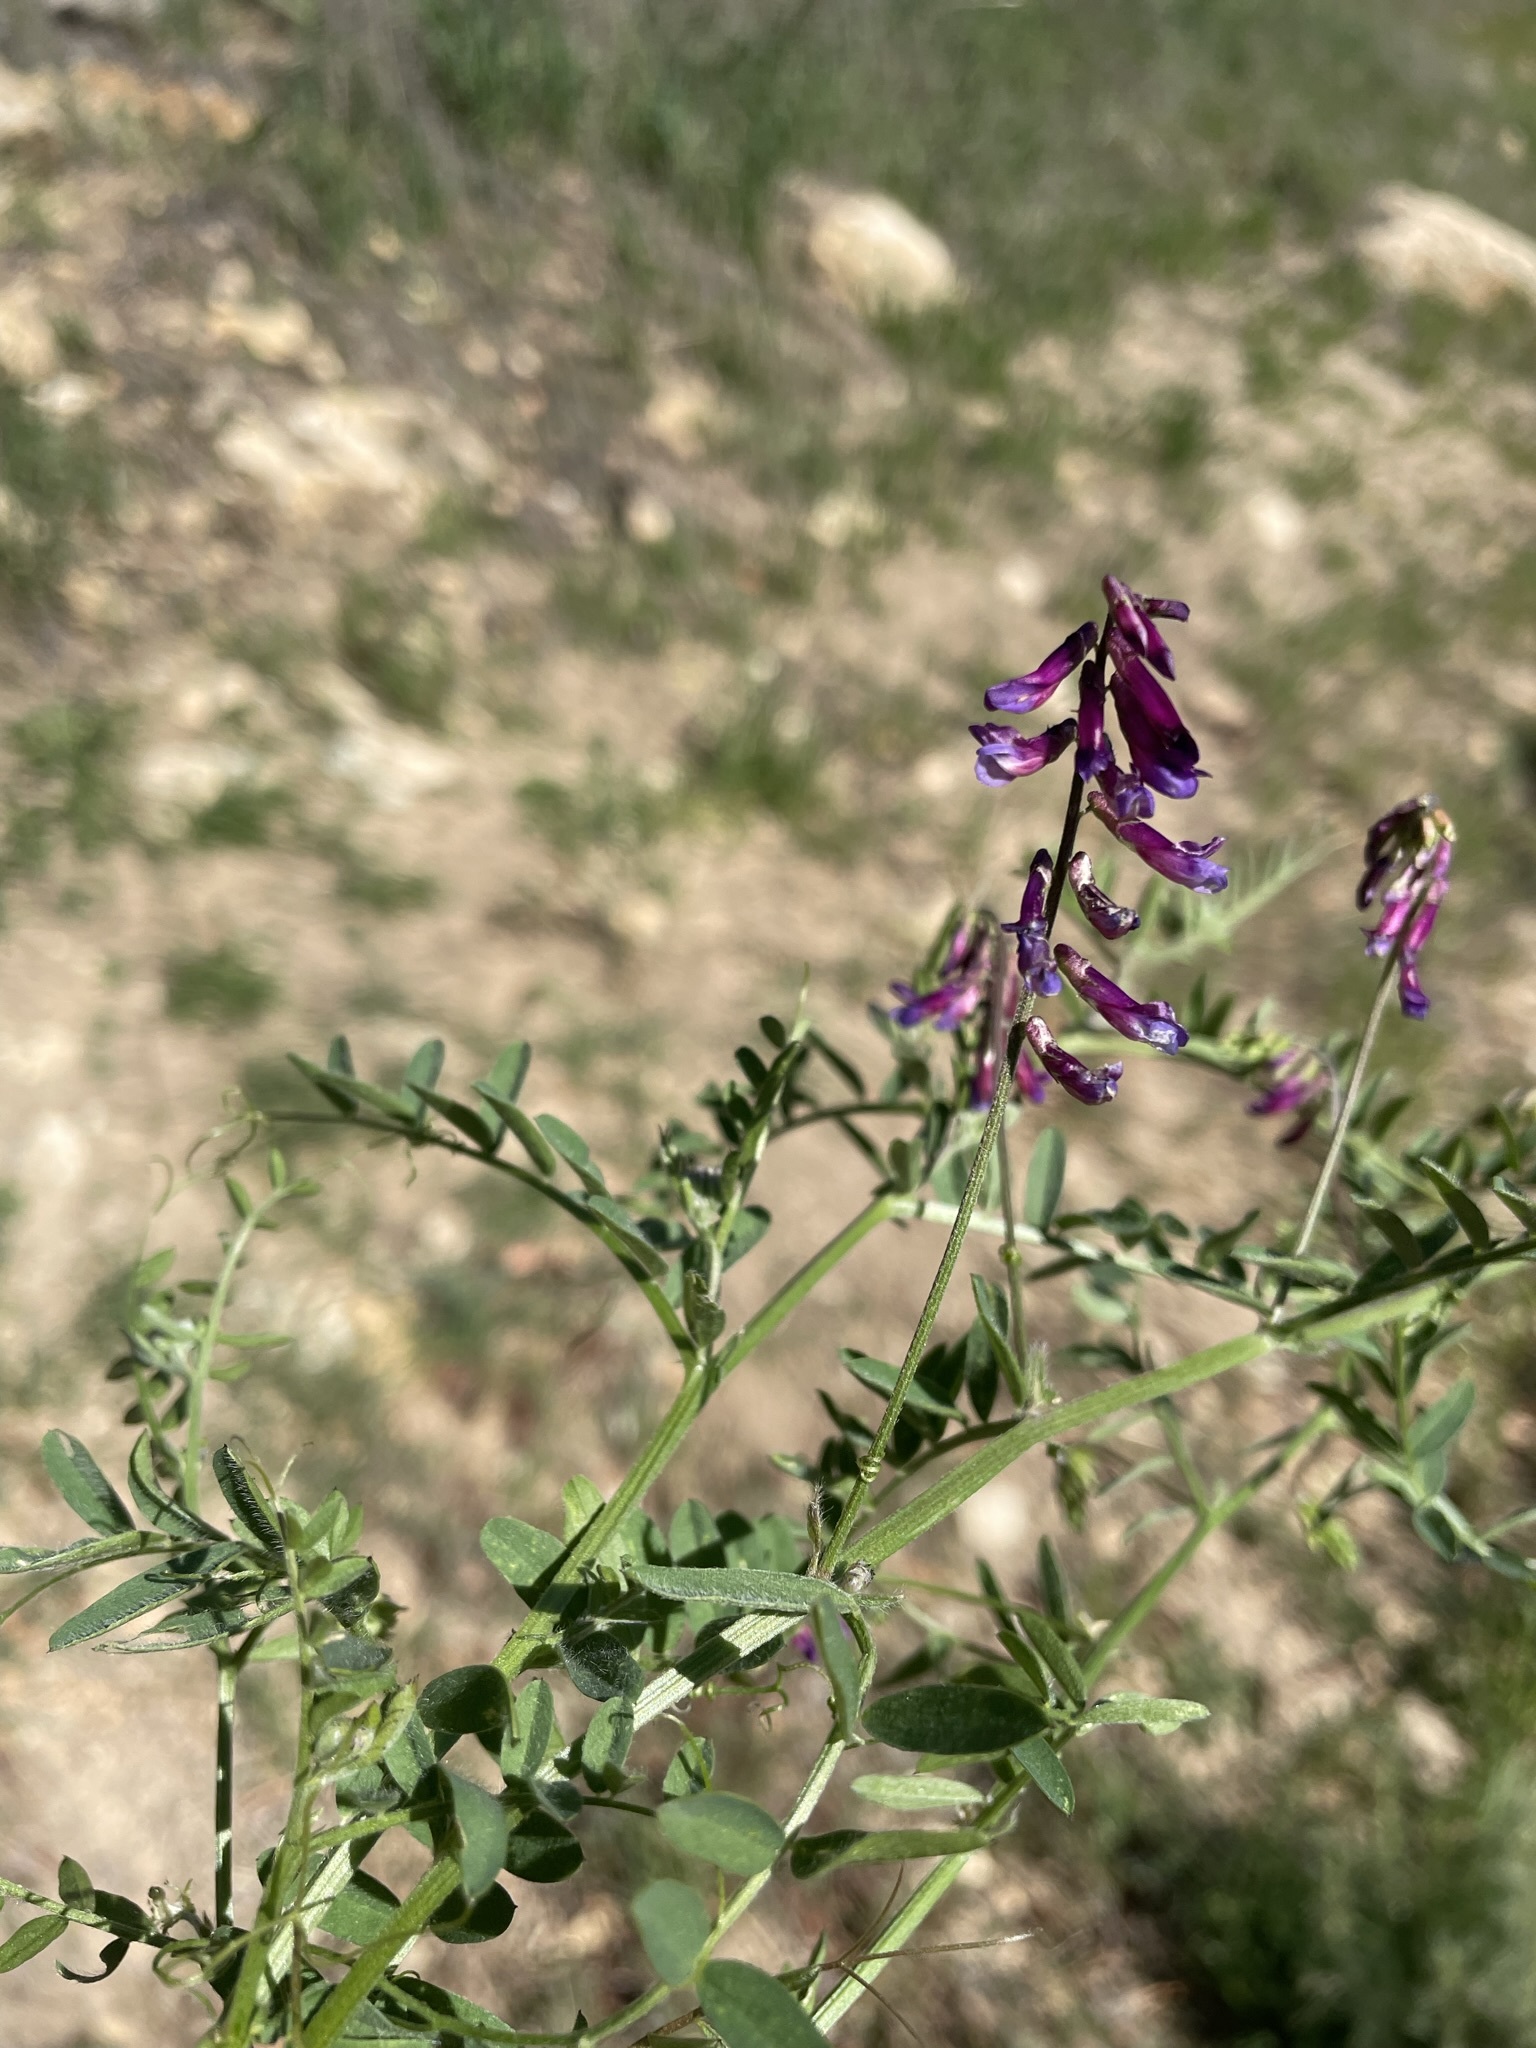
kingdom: Plantae
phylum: Tracheophyta
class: Magnoliopsida
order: Fabales
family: Fabaceae
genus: Vicia
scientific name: Vicia villosa
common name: Fodder vetch
